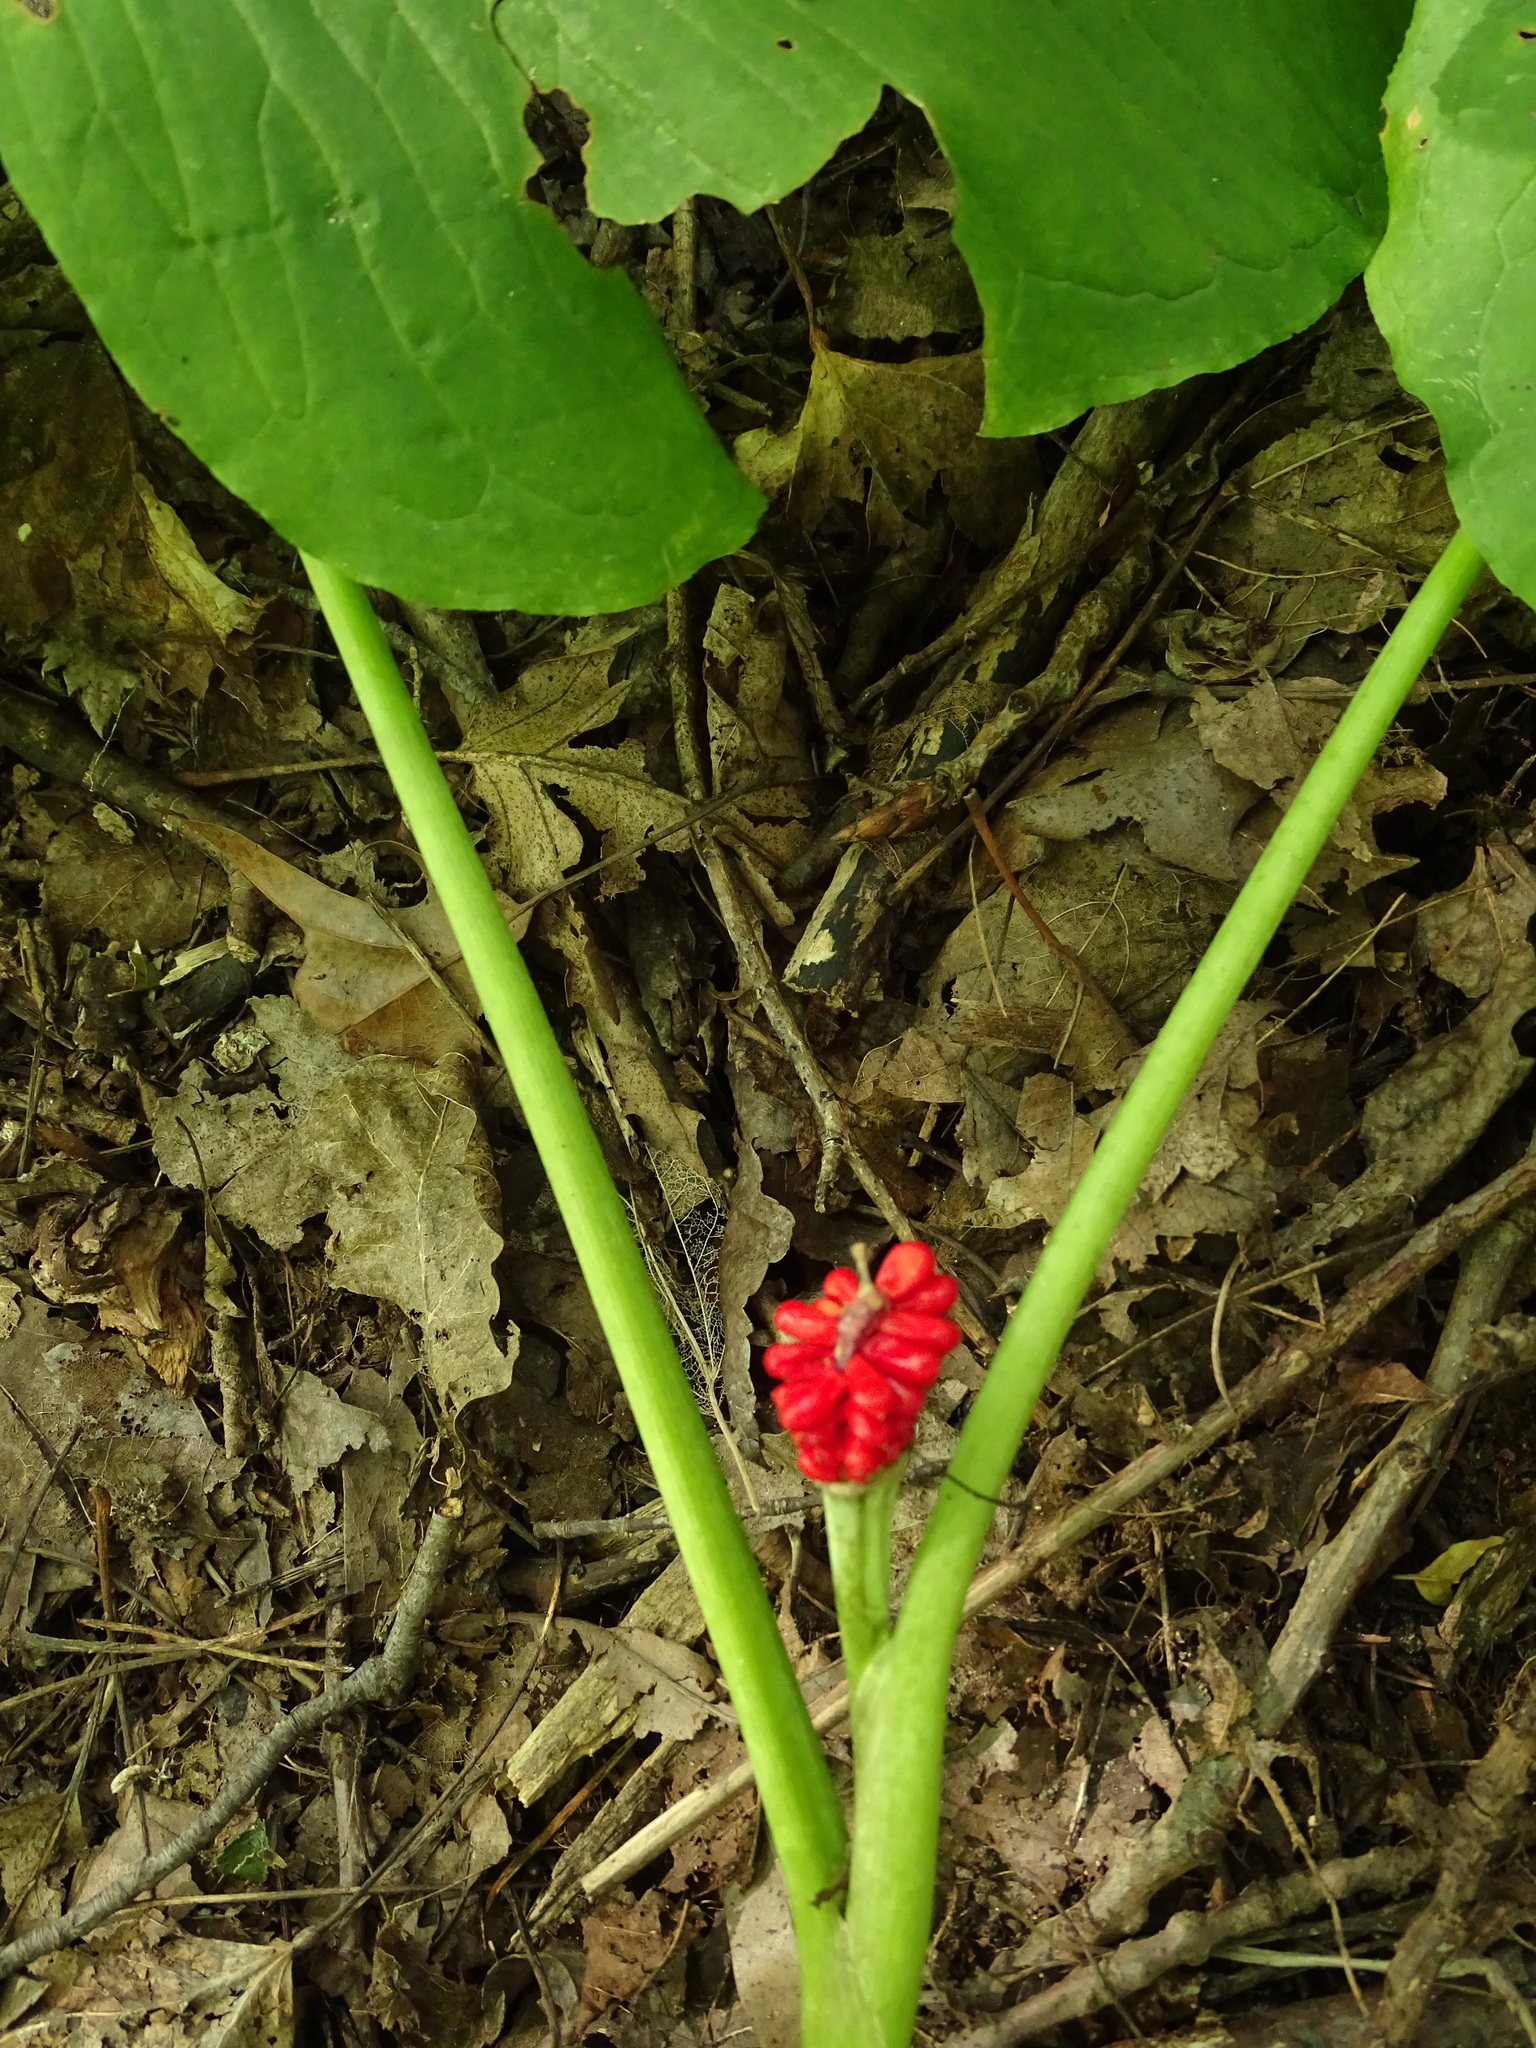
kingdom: Plantae
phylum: Tracheophyta
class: Liliopsida
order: Alismatales
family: Araceae
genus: Arisaema
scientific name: Arisaema triphyllum
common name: Jack-in-the-pulpit
